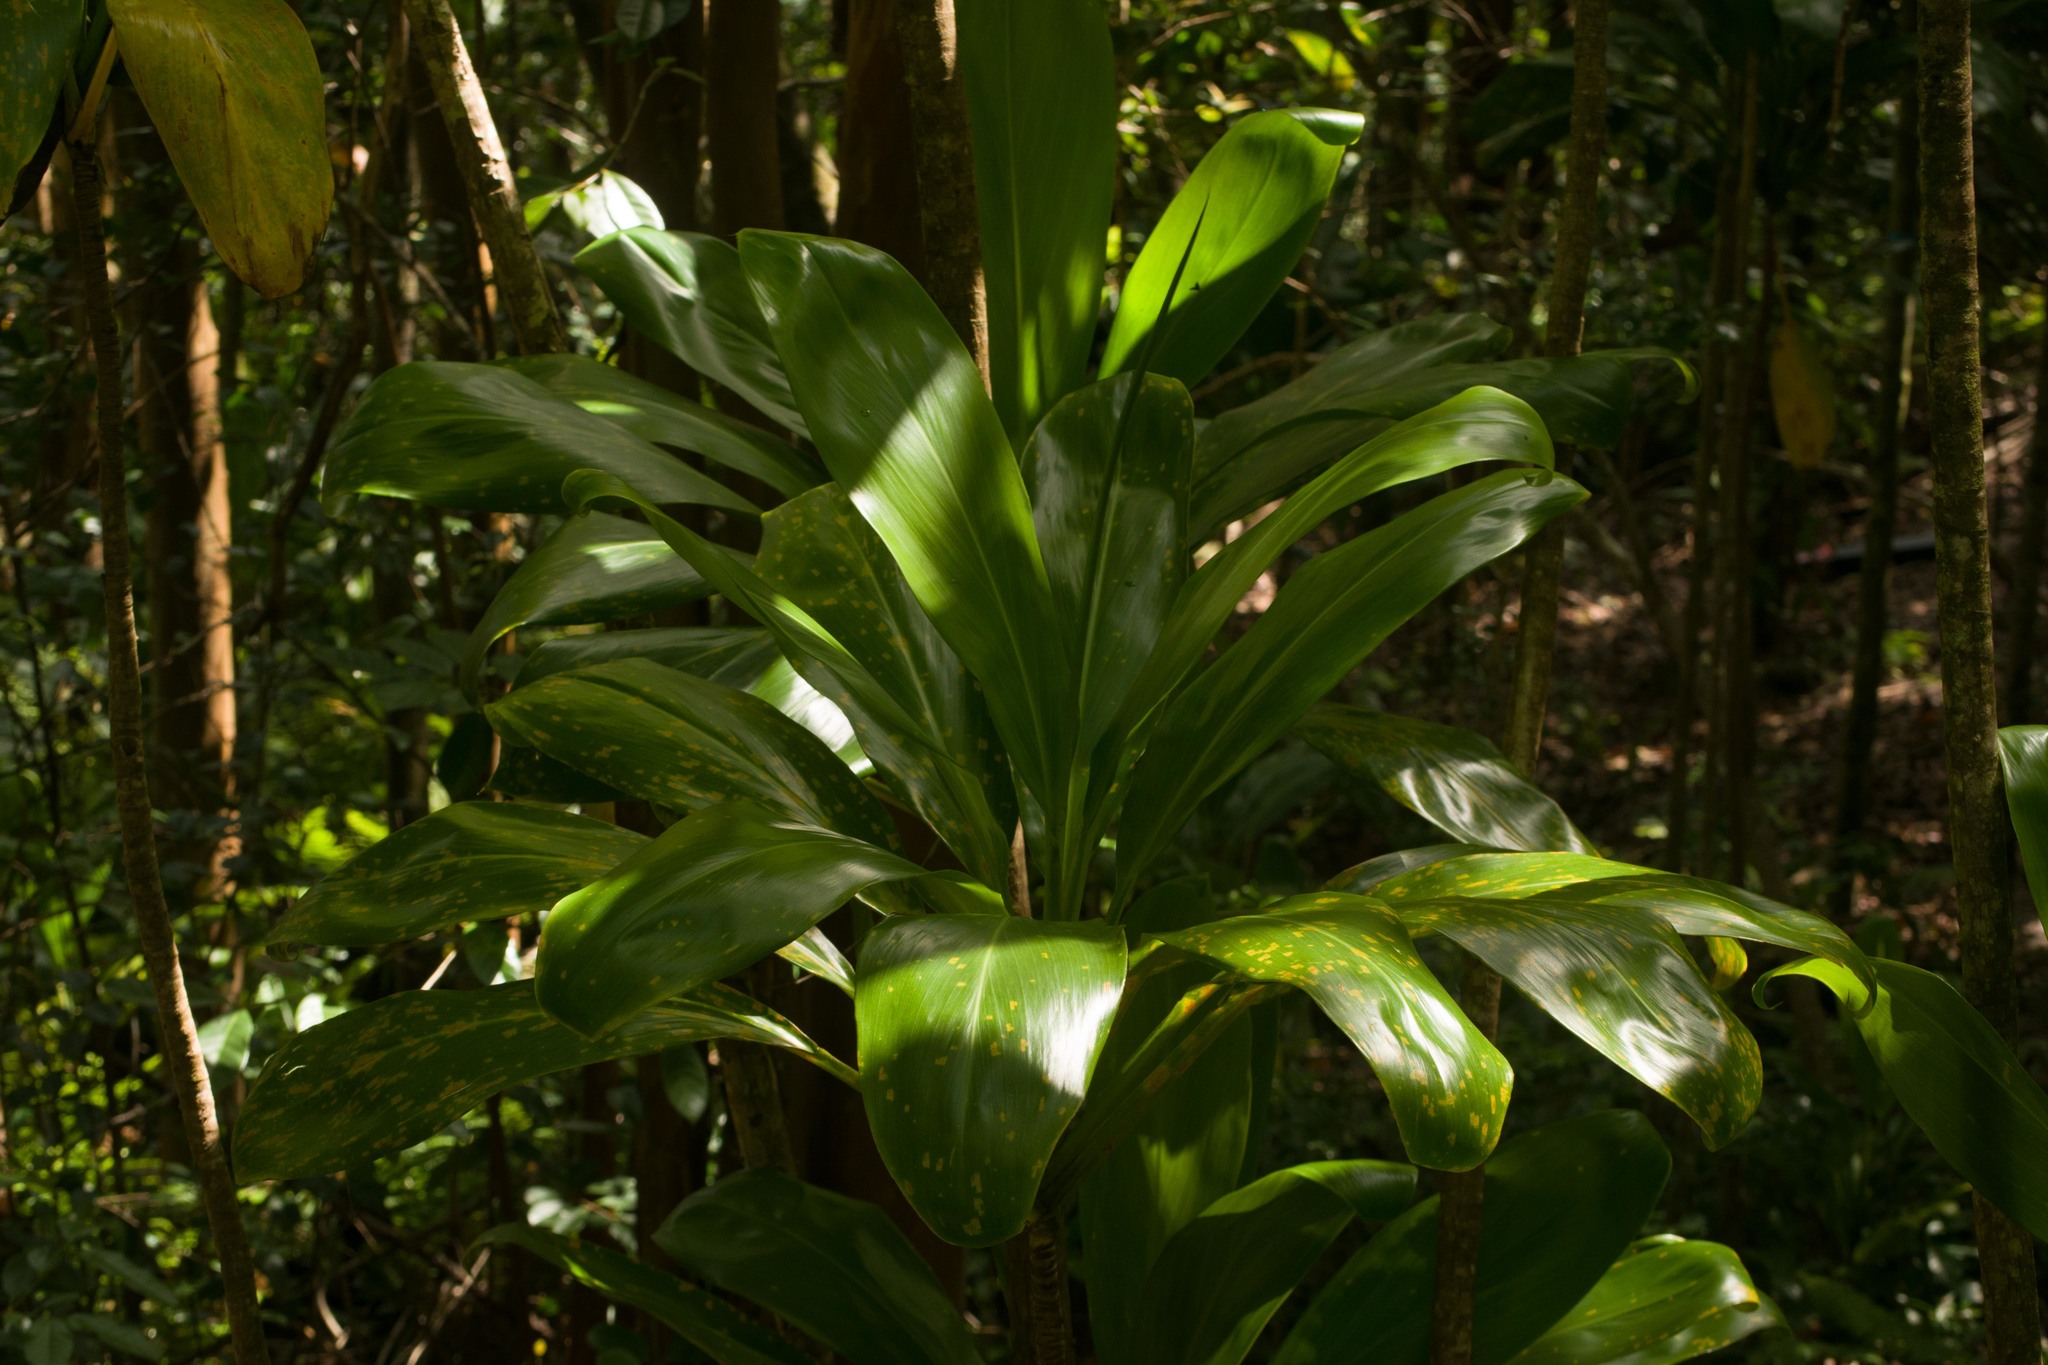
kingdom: Plantae
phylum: Tracheophyta
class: Liliopsida
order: Asparagales
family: Asparagaceae
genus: Cordyline
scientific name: Cordyline fruticosa
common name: Good-luck-plant
